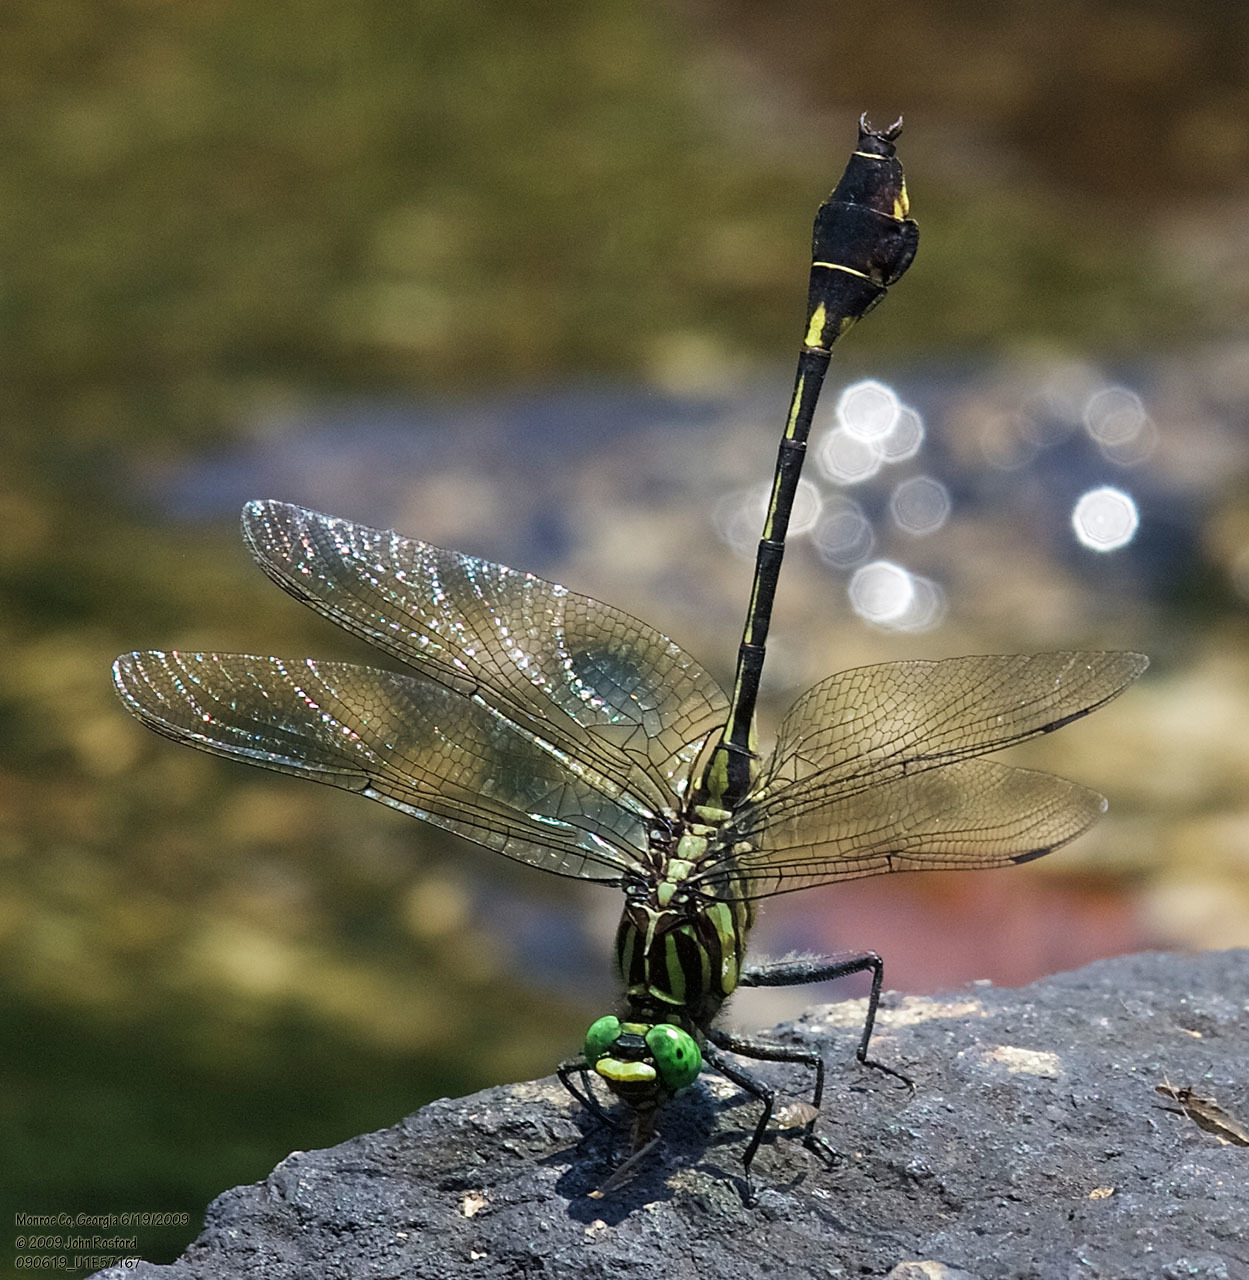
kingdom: Animalia
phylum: Arthropoda
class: Insecta
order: Odonata
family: Gomphidae
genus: Gomphurus
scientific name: Gomphurus dilatatus
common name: Blackwater clubtail
